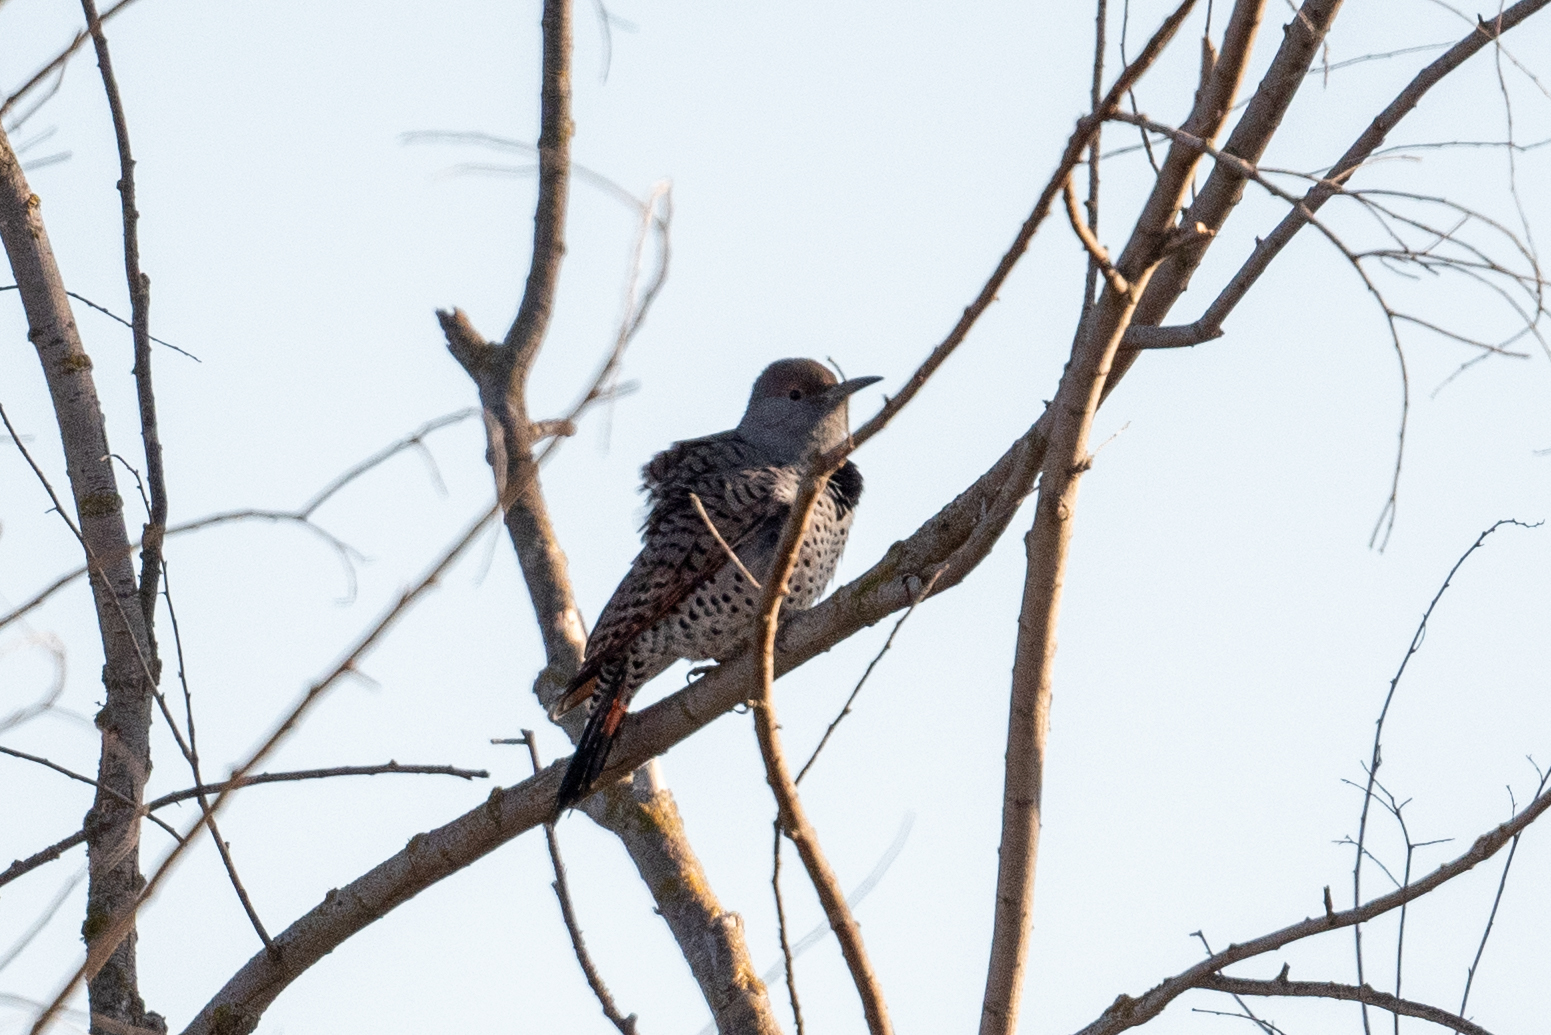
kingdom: Animalia
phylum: Chordata
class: Aves
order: Piciformes
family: Picidae
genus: Colaptes
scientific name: Colaptes auratus
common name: Northern flicker
